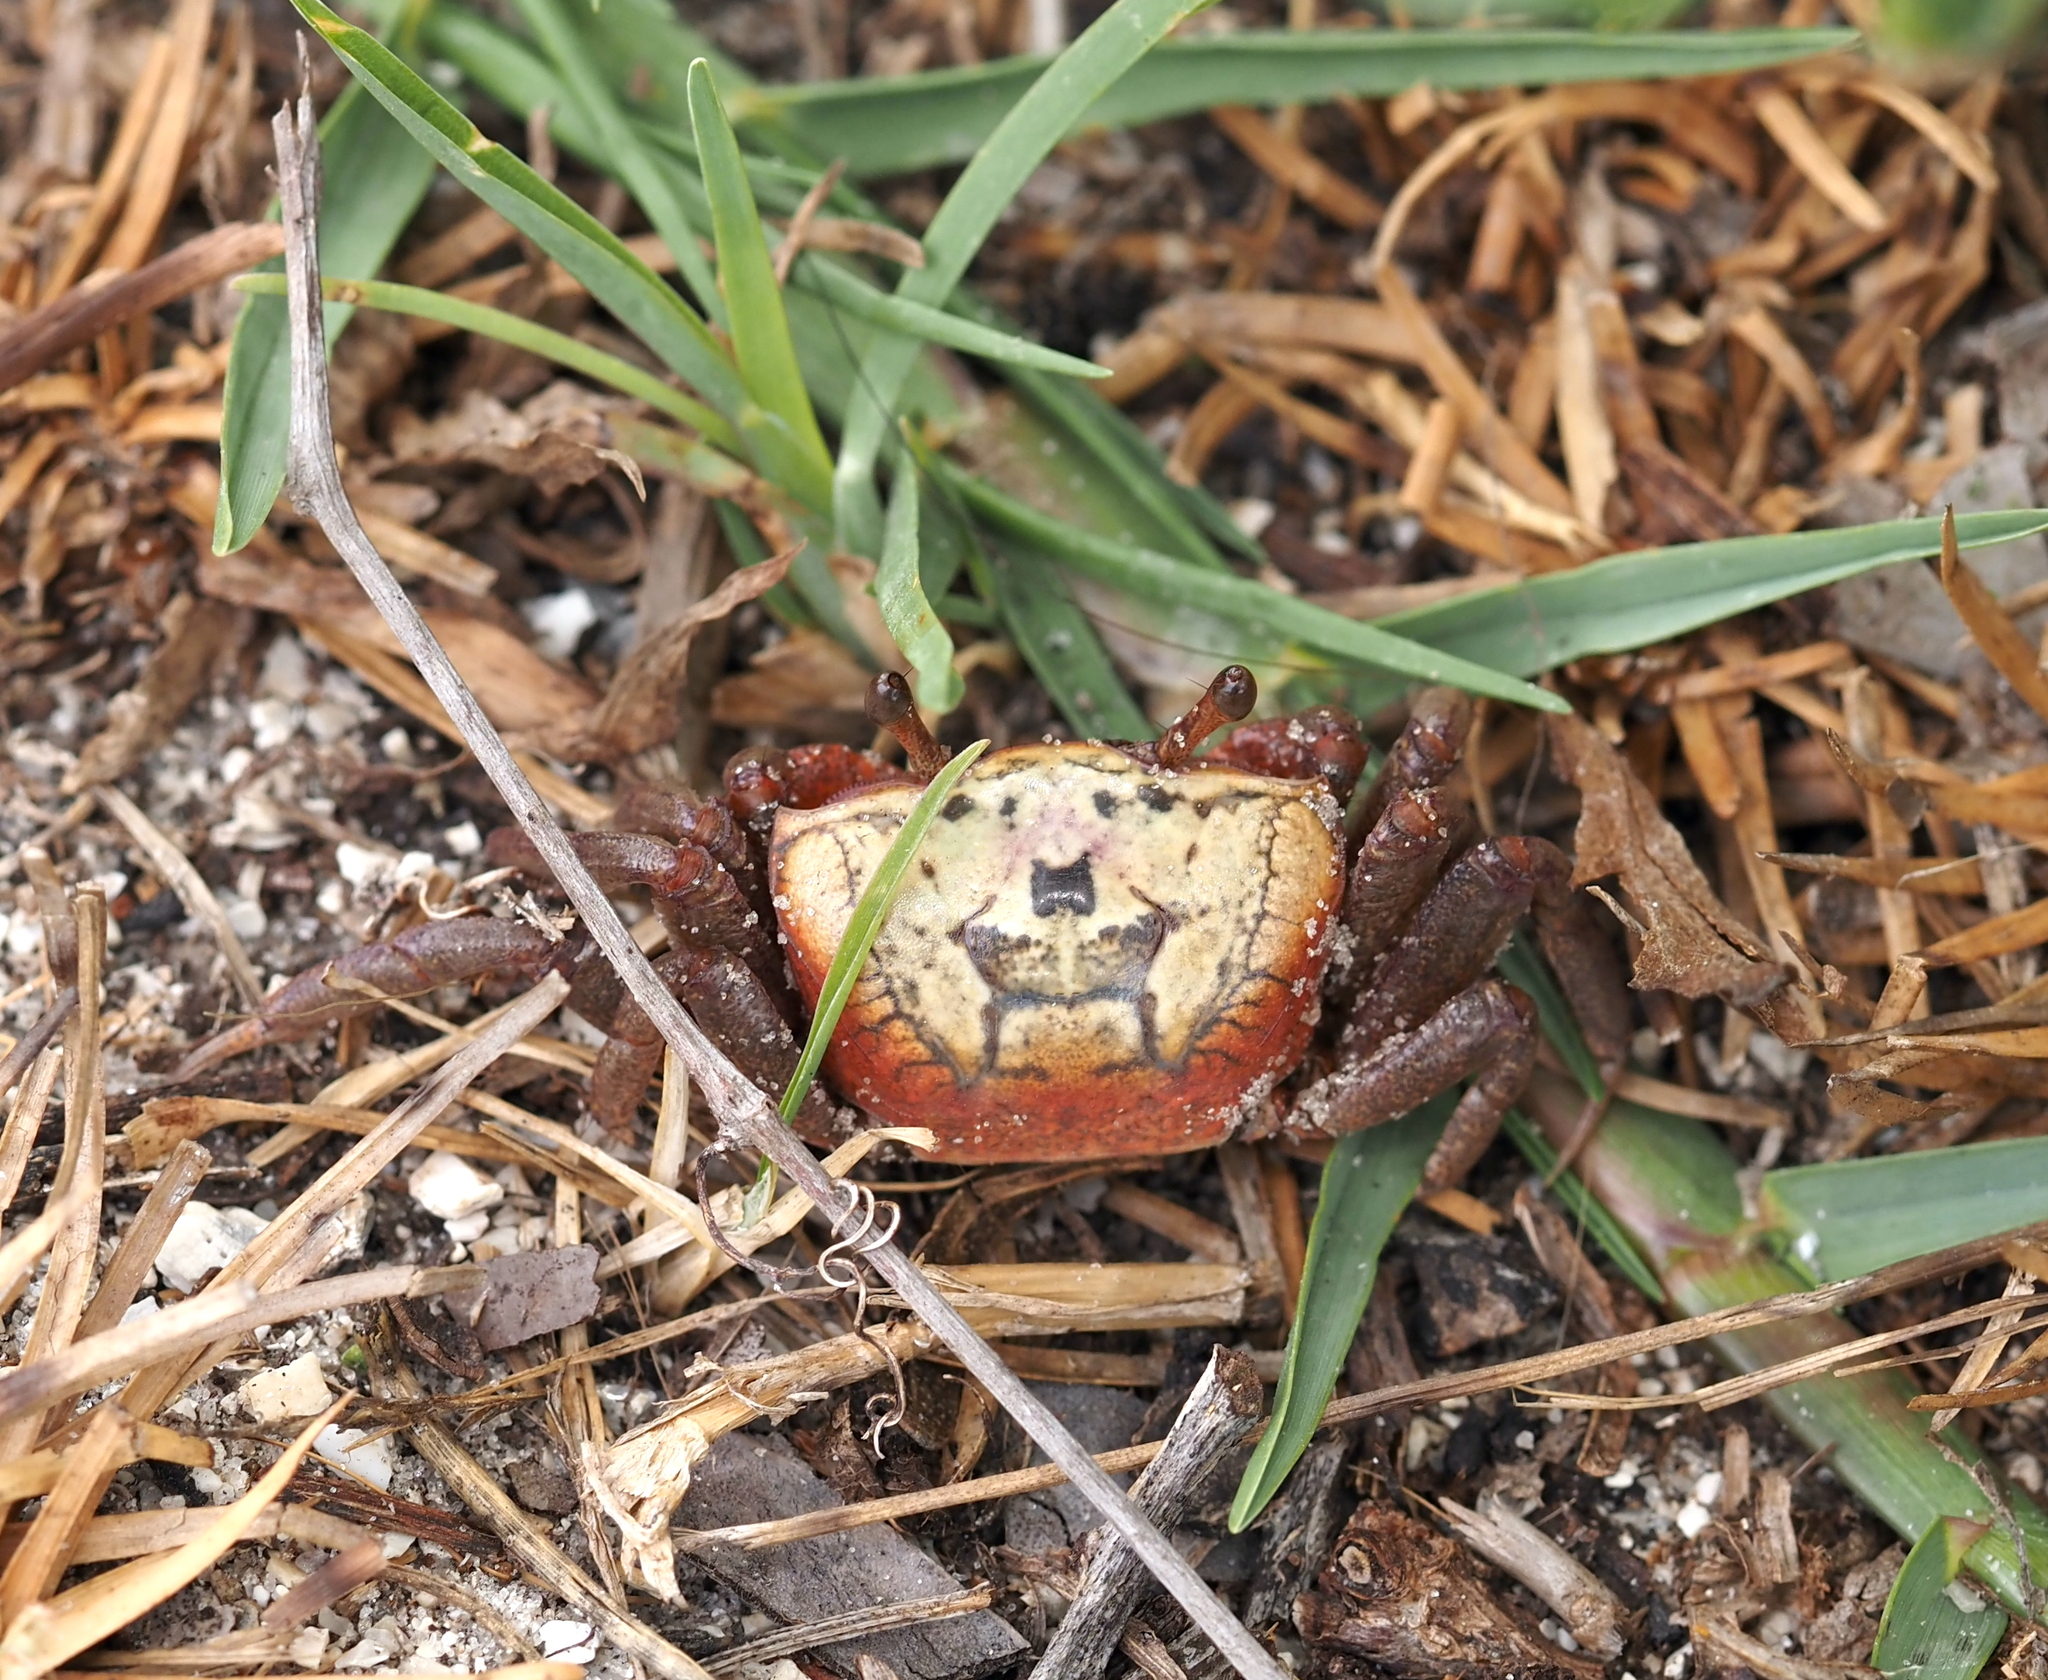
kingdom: Animalia
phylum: Arthropoda
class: Malacostraca
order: Decapoda
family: Ocypodidae
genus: Leptuca
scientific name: Leptuca pugilator
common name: Atlantic sand fiddler crab
